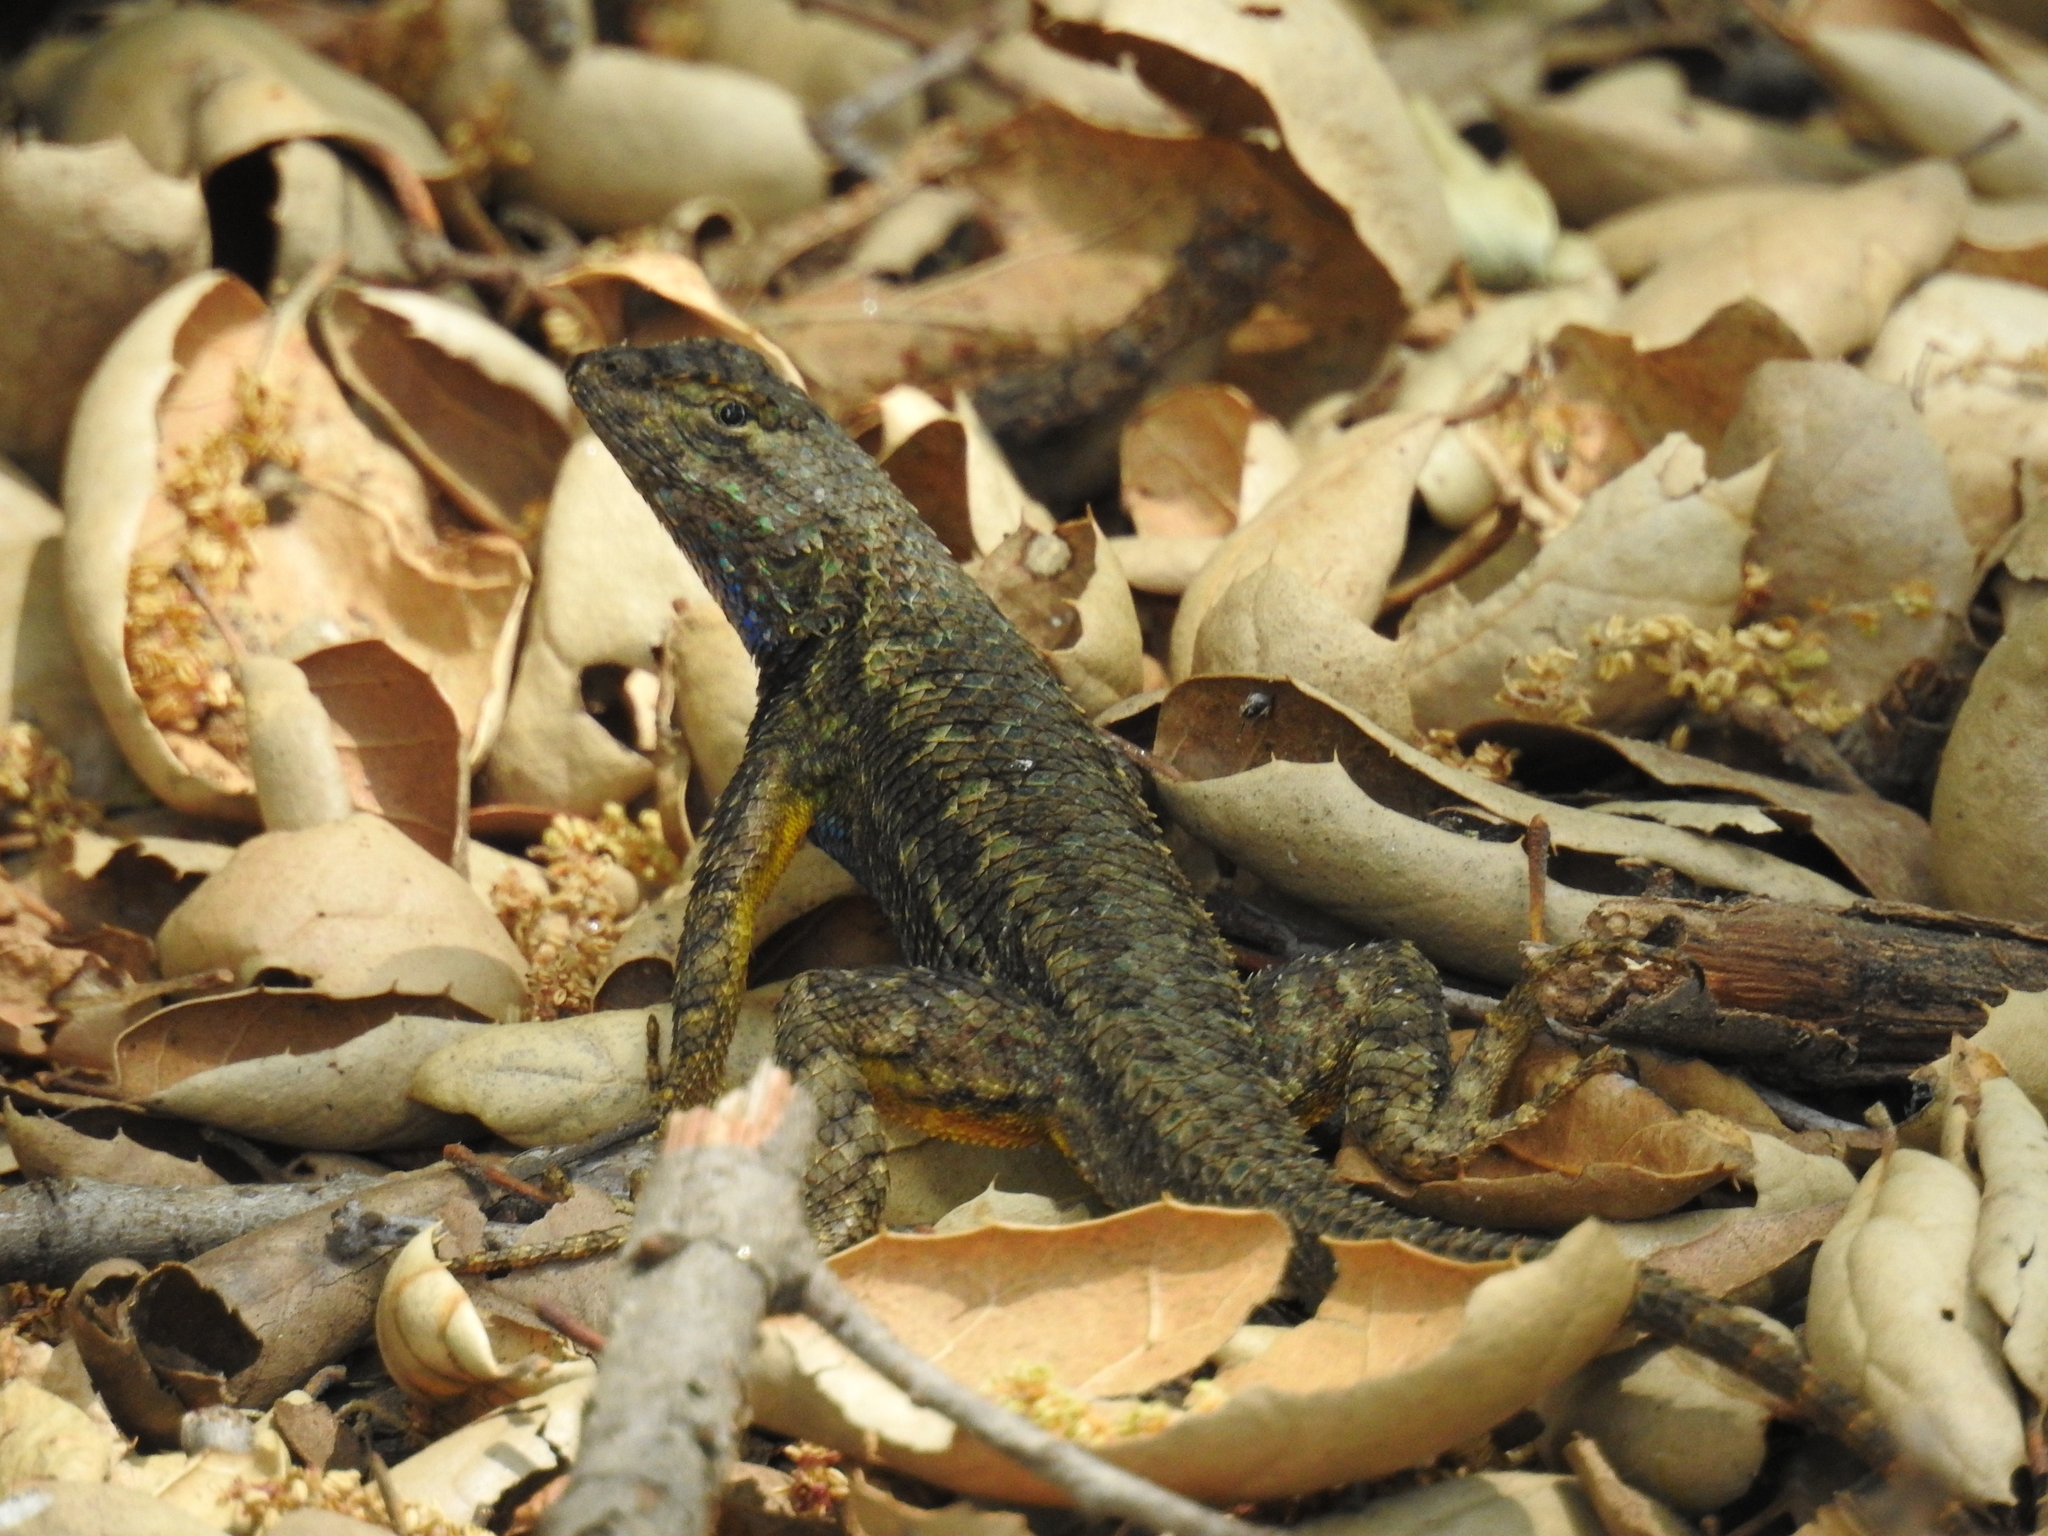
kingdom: Animalia
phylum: Chordata
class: Squamata
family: Phrynosomatidae
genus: Sceloporus
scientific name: Sceloporus occidentalis
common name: Western fence lizard
